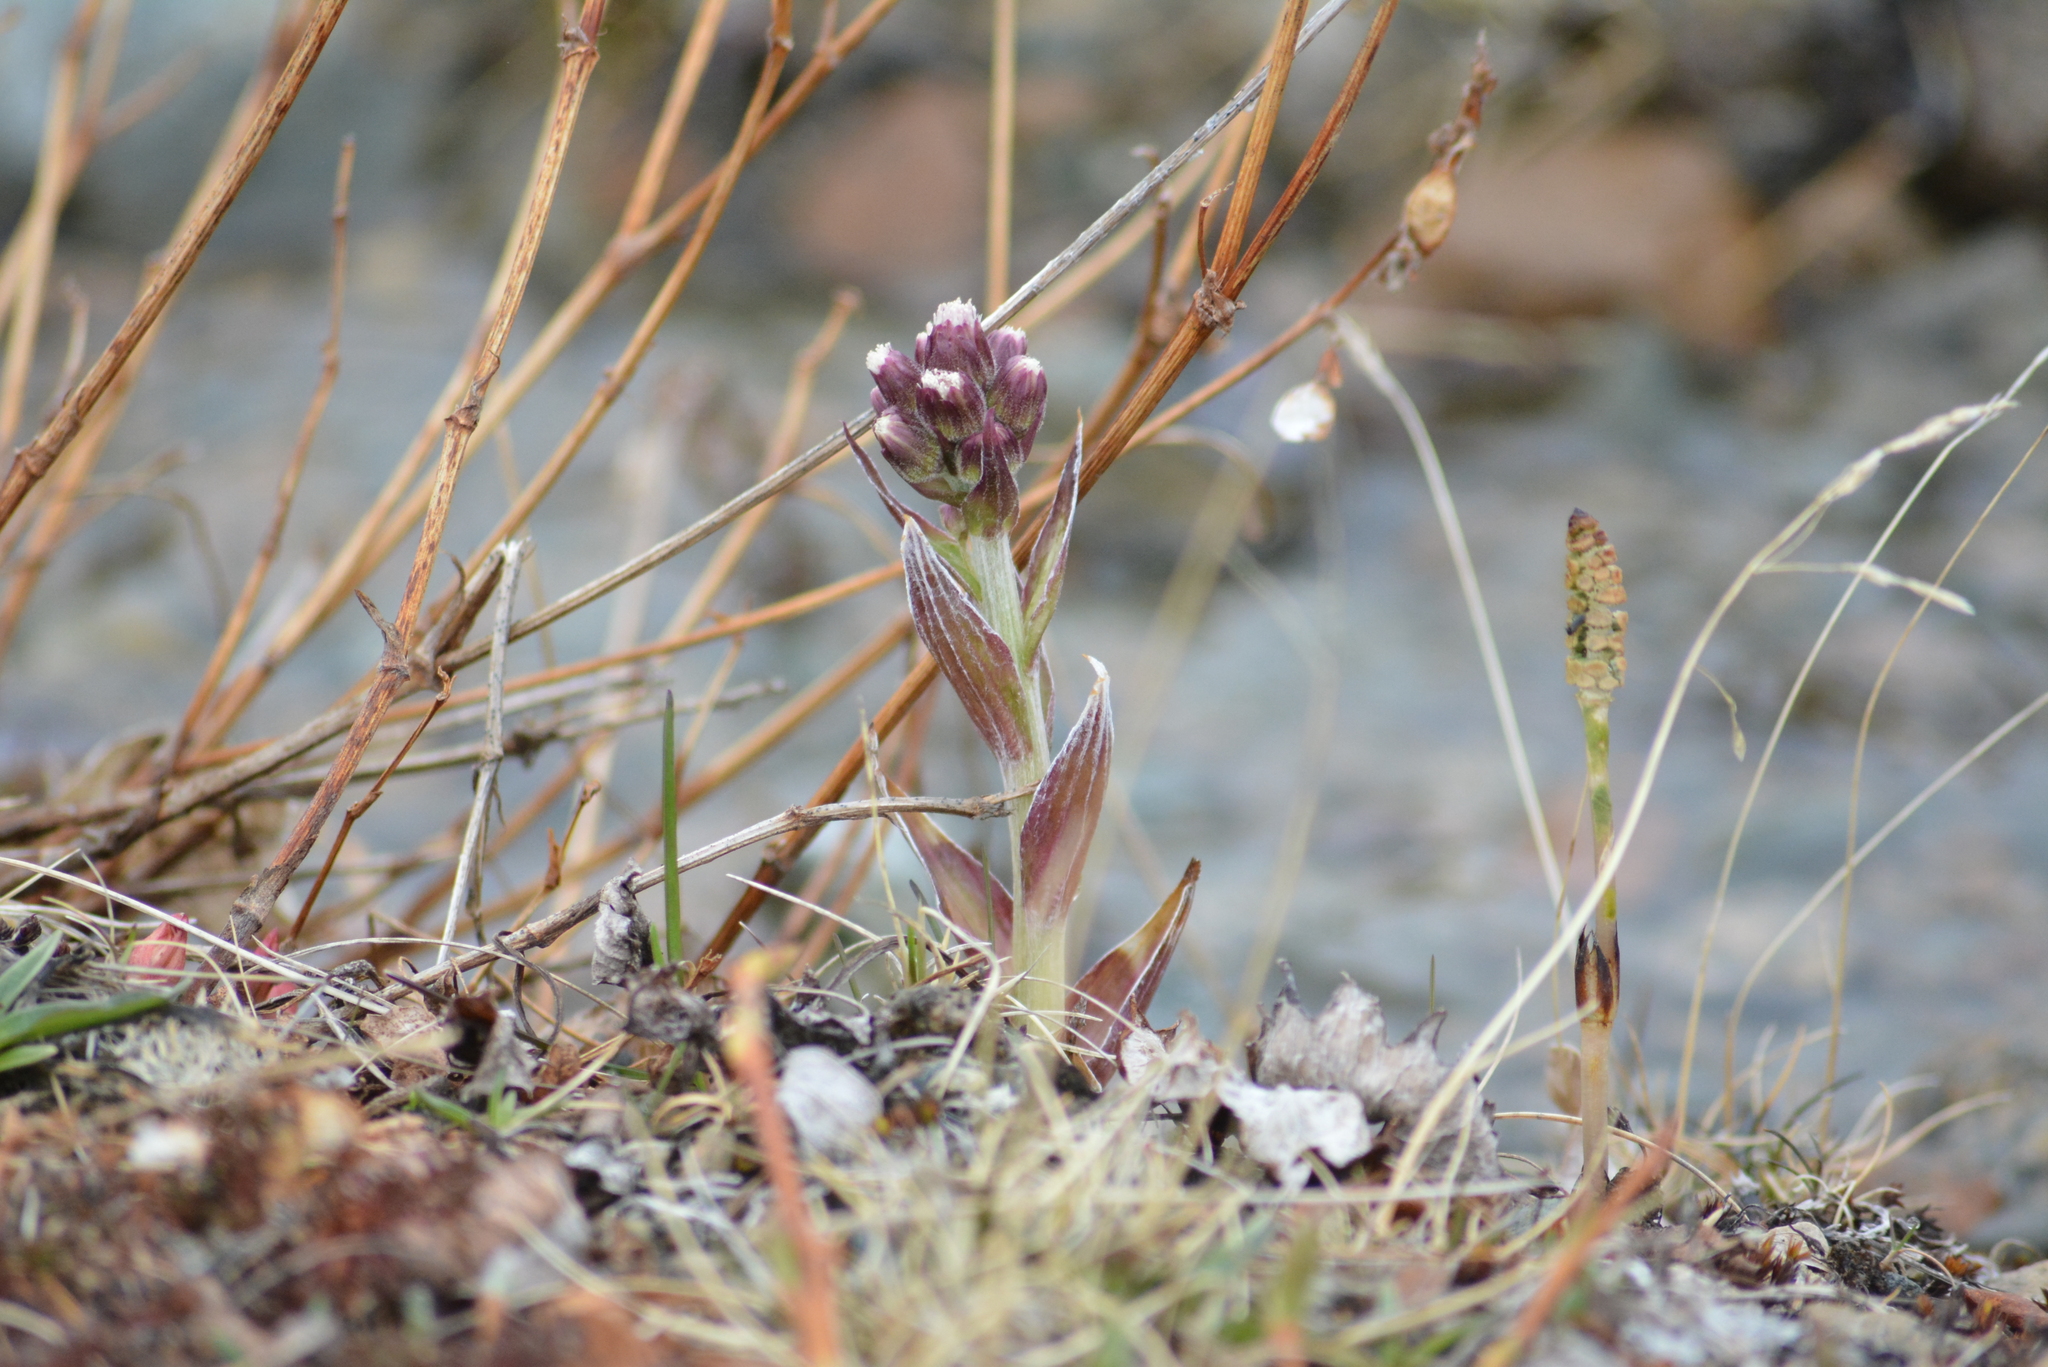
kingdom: Plantae
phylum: Tracheophyta
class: Magnoliopsida
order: Asterales
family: Asteraceae
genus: Petasites
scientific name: Petasites frigidus
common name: Arctic butterbur
